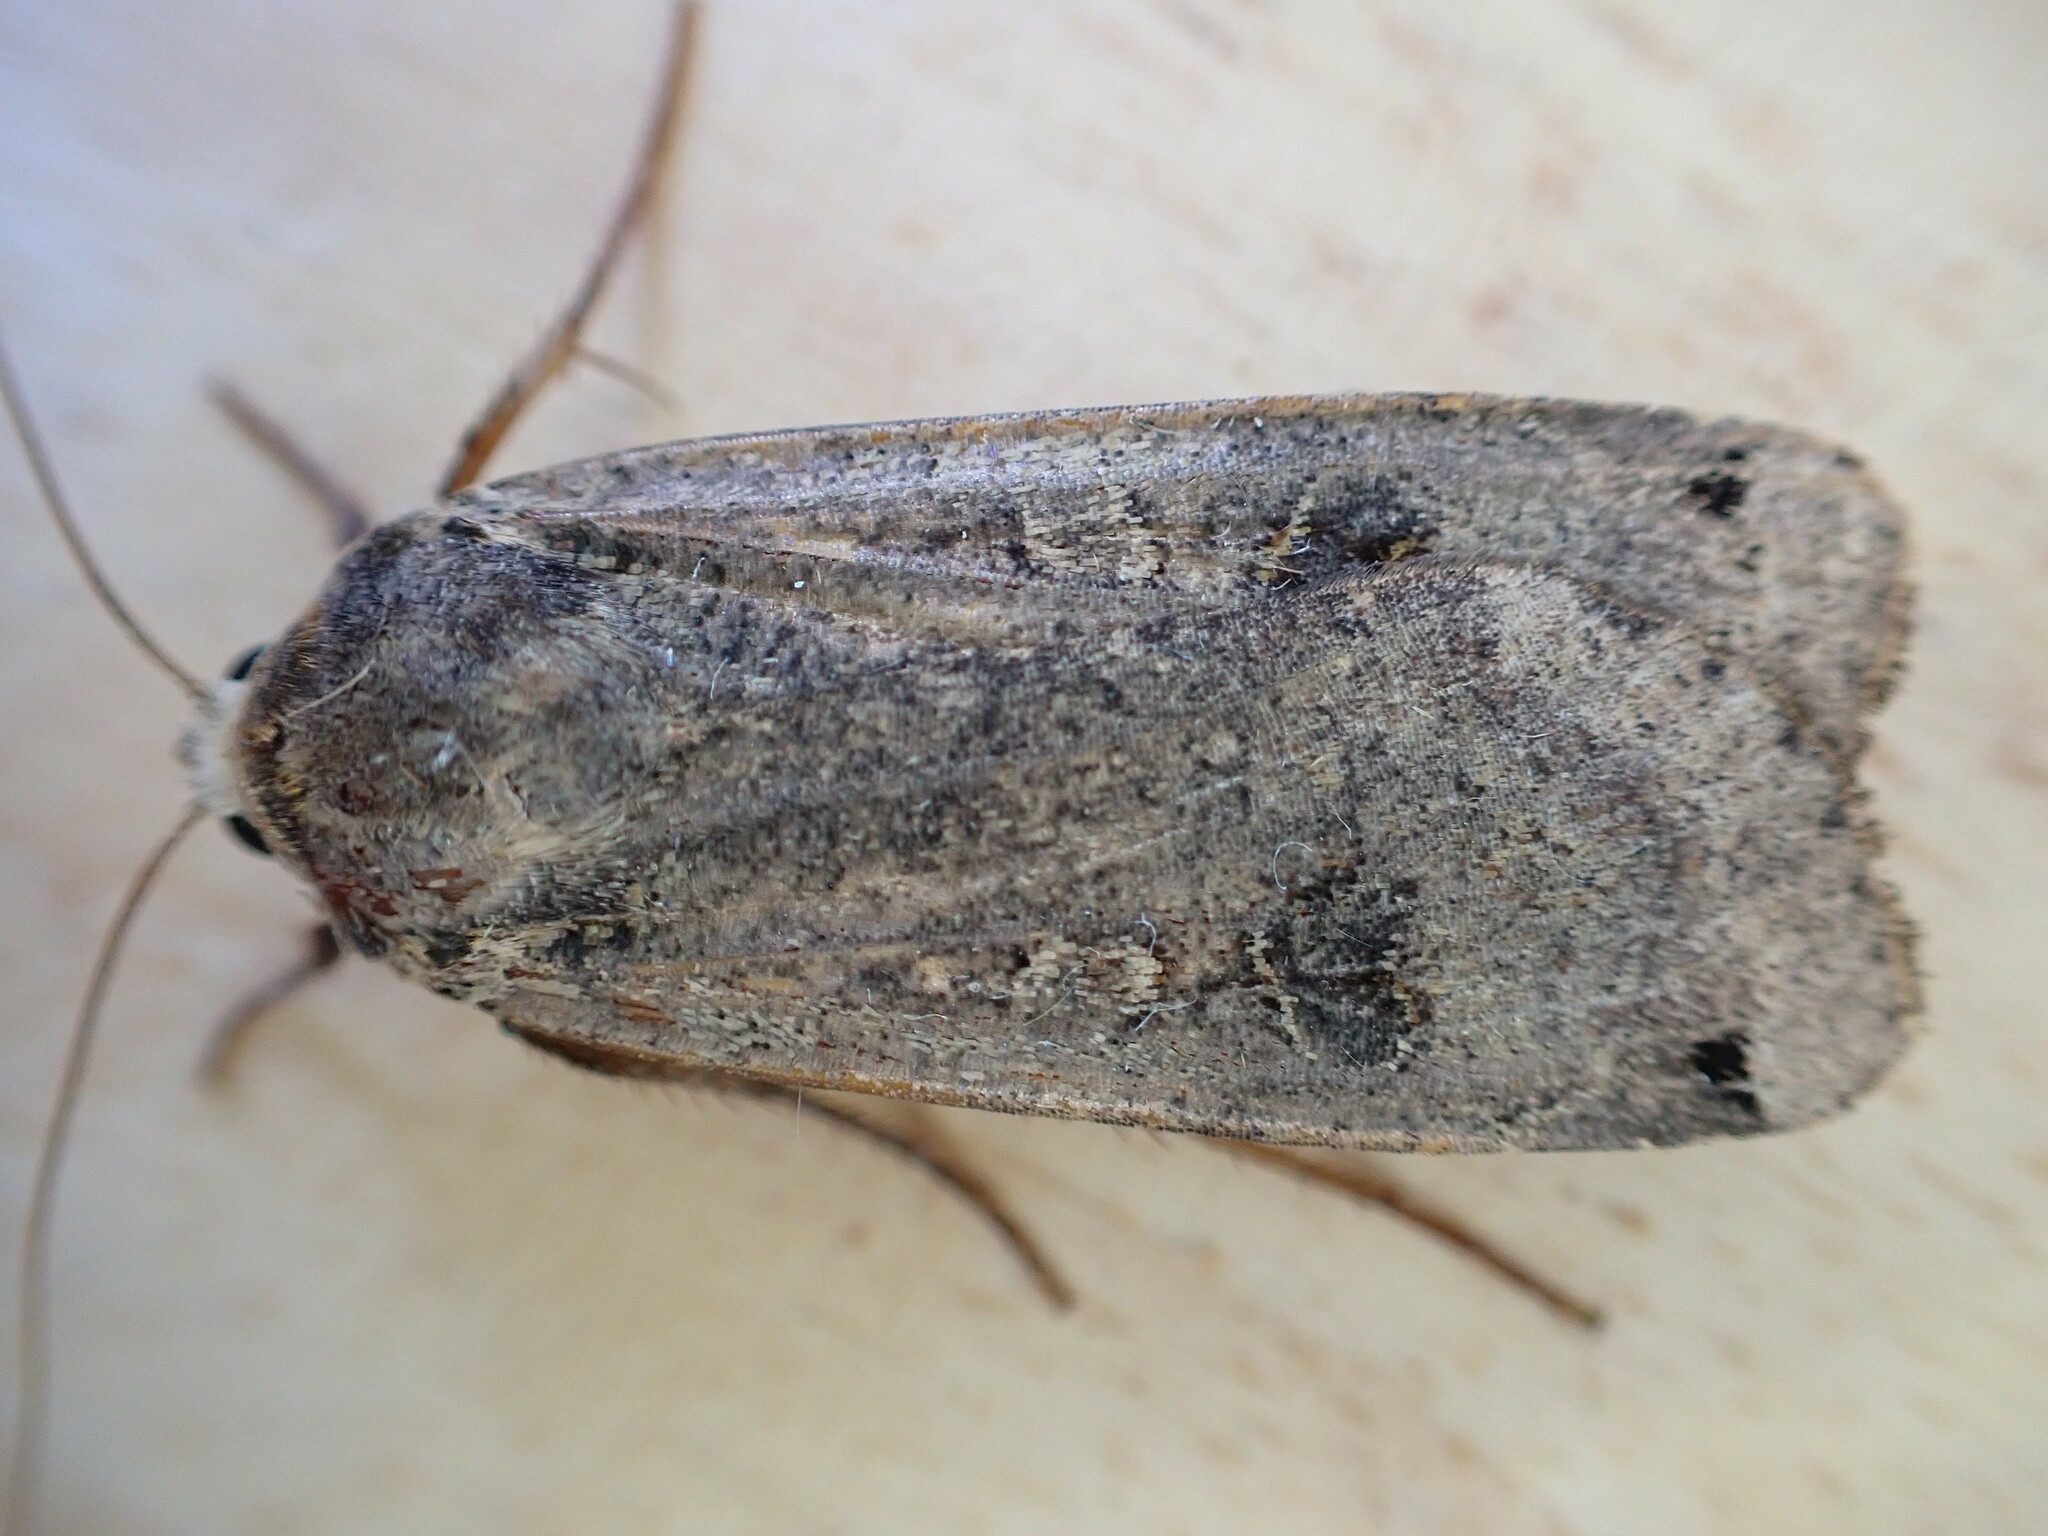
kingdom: Animalia
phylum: Arthropoda
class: Insecta
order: Lepidoptera
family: Noctuidae
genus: Noctua
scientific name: Noctua pronuba
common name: Large yellow underwing
